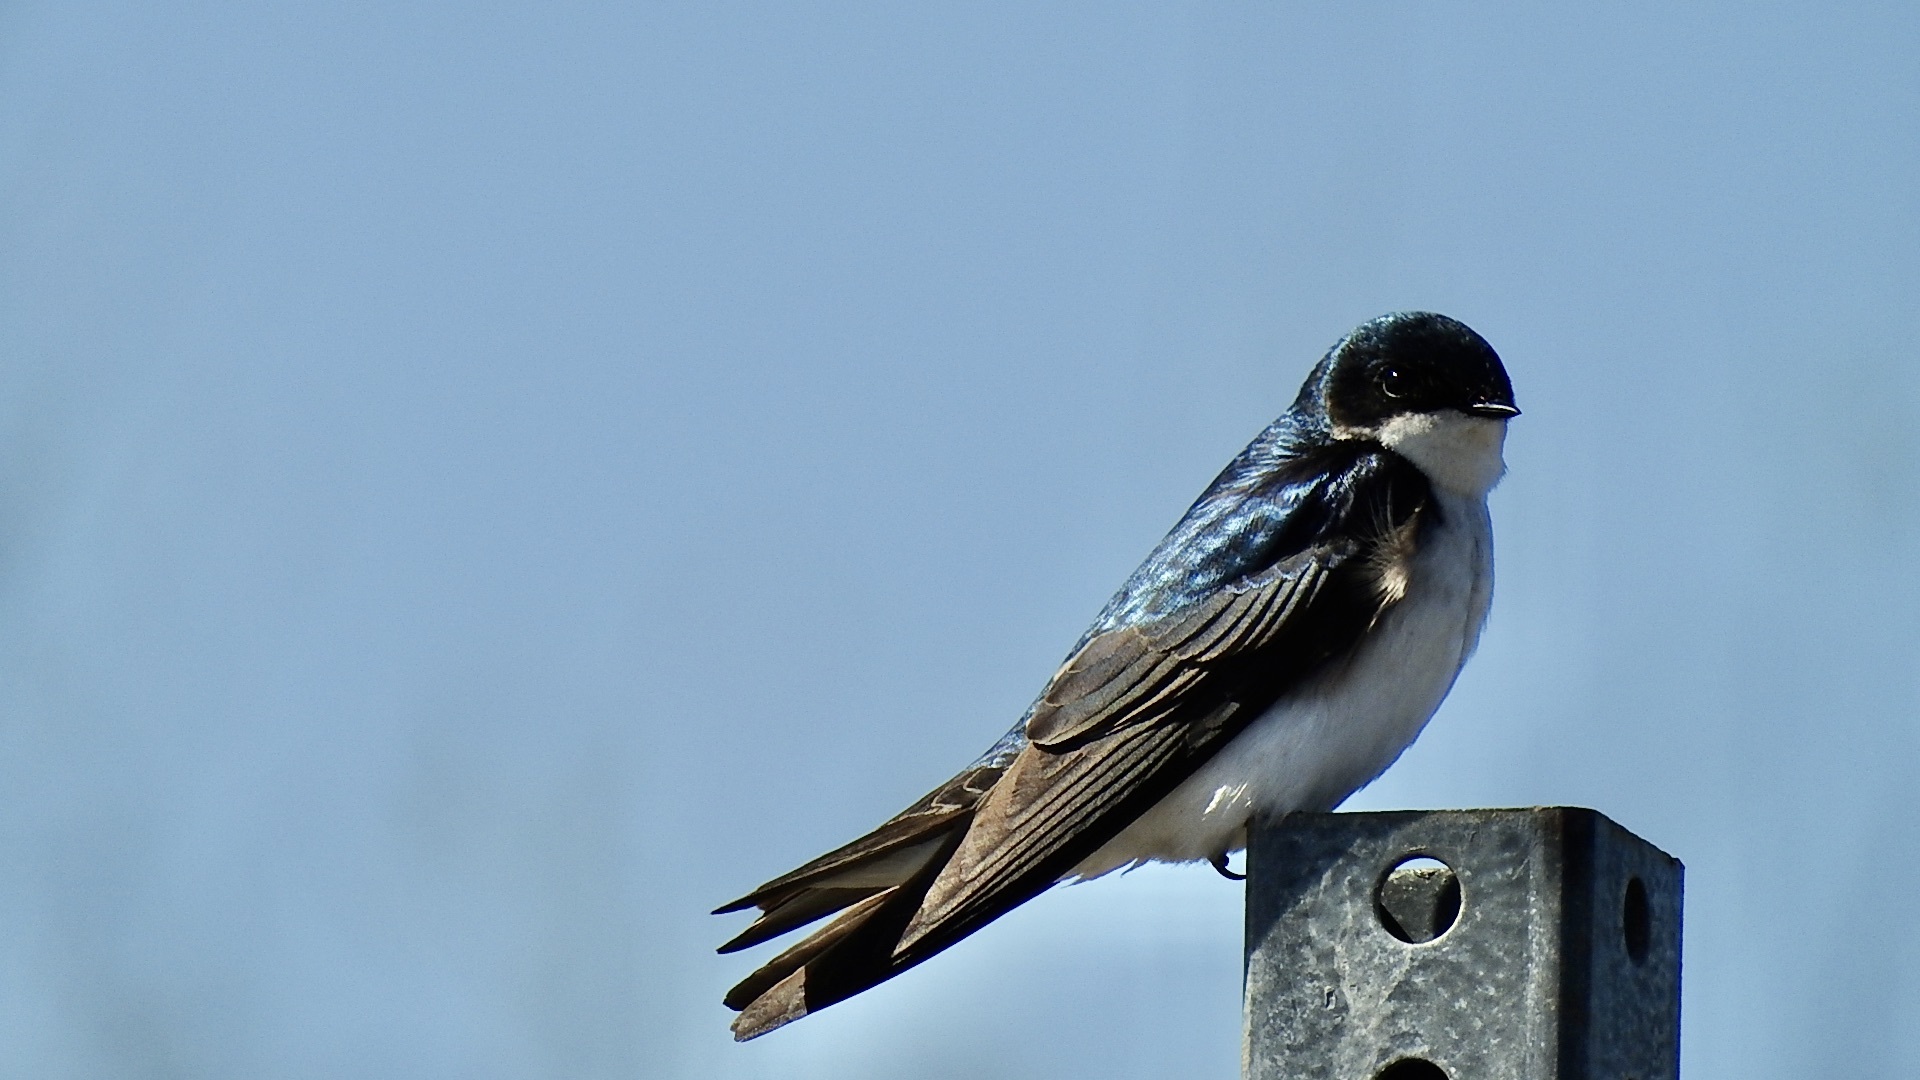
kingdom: Animalia
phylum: Chordata
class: Aves
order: Passeriformes
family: Hirundinidae
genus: Tachycineta
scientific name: Tachycineta bicolor
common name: Tree swallow
